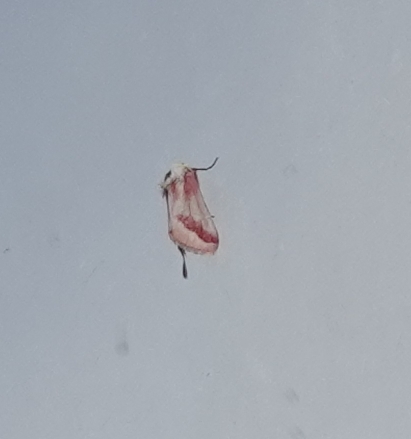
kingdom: Animalia
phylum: Arthropoda
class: Insecta
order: Lepidoptera
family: Noctuidae
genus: Schinia
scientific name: Schinia gaurae
